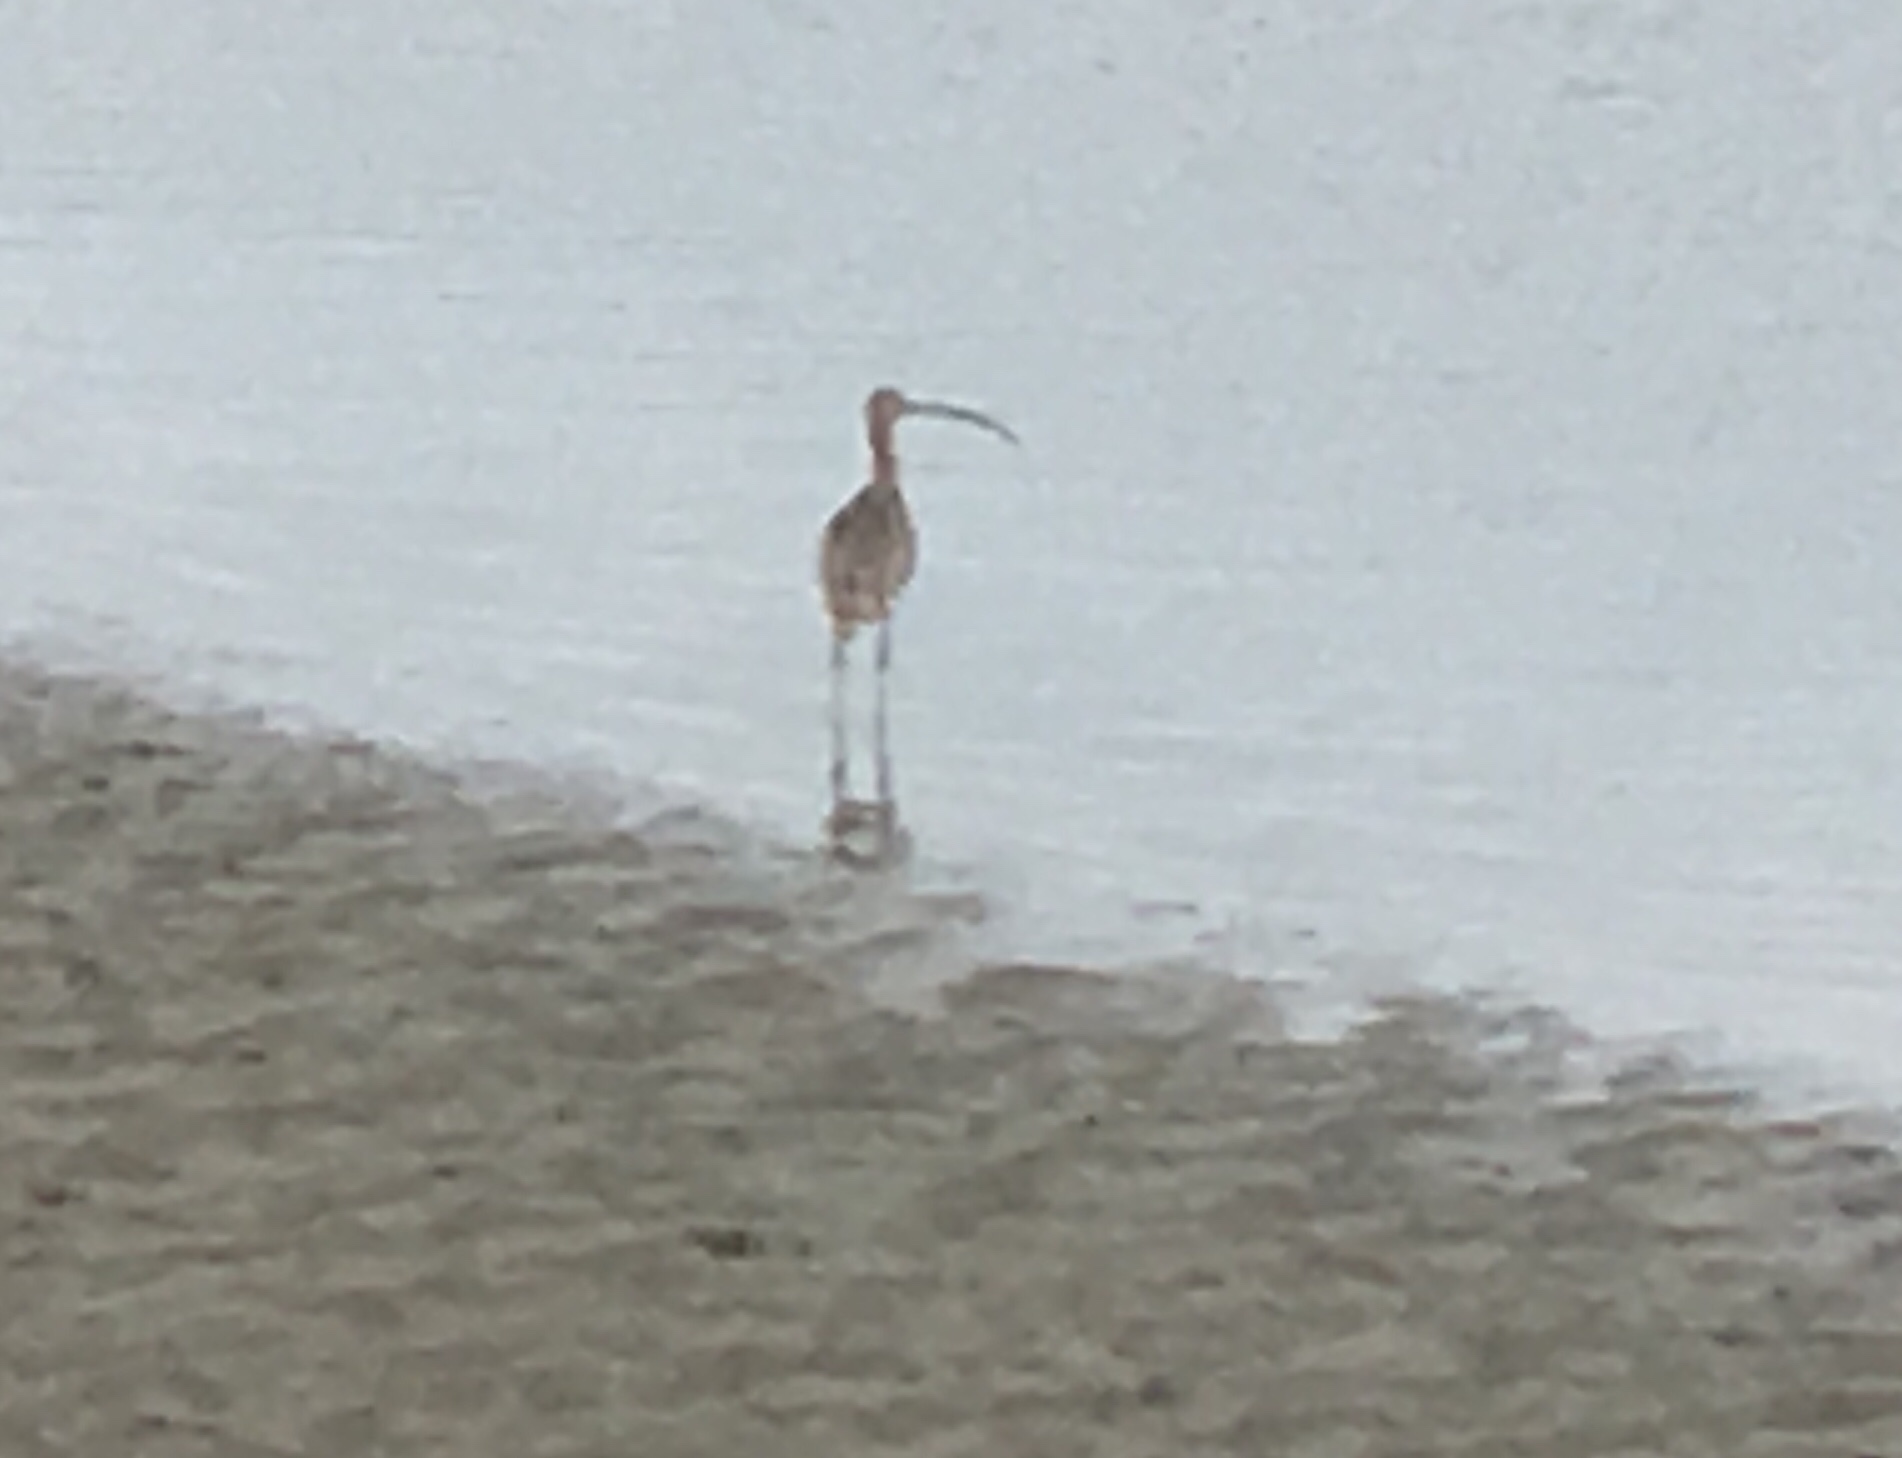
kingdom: Animalia
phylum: Chordata
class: Aves
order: Charadriiformes
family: Scolopacidae
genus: Numenius
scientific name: Numenius americanus
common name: Long-billed curlew
